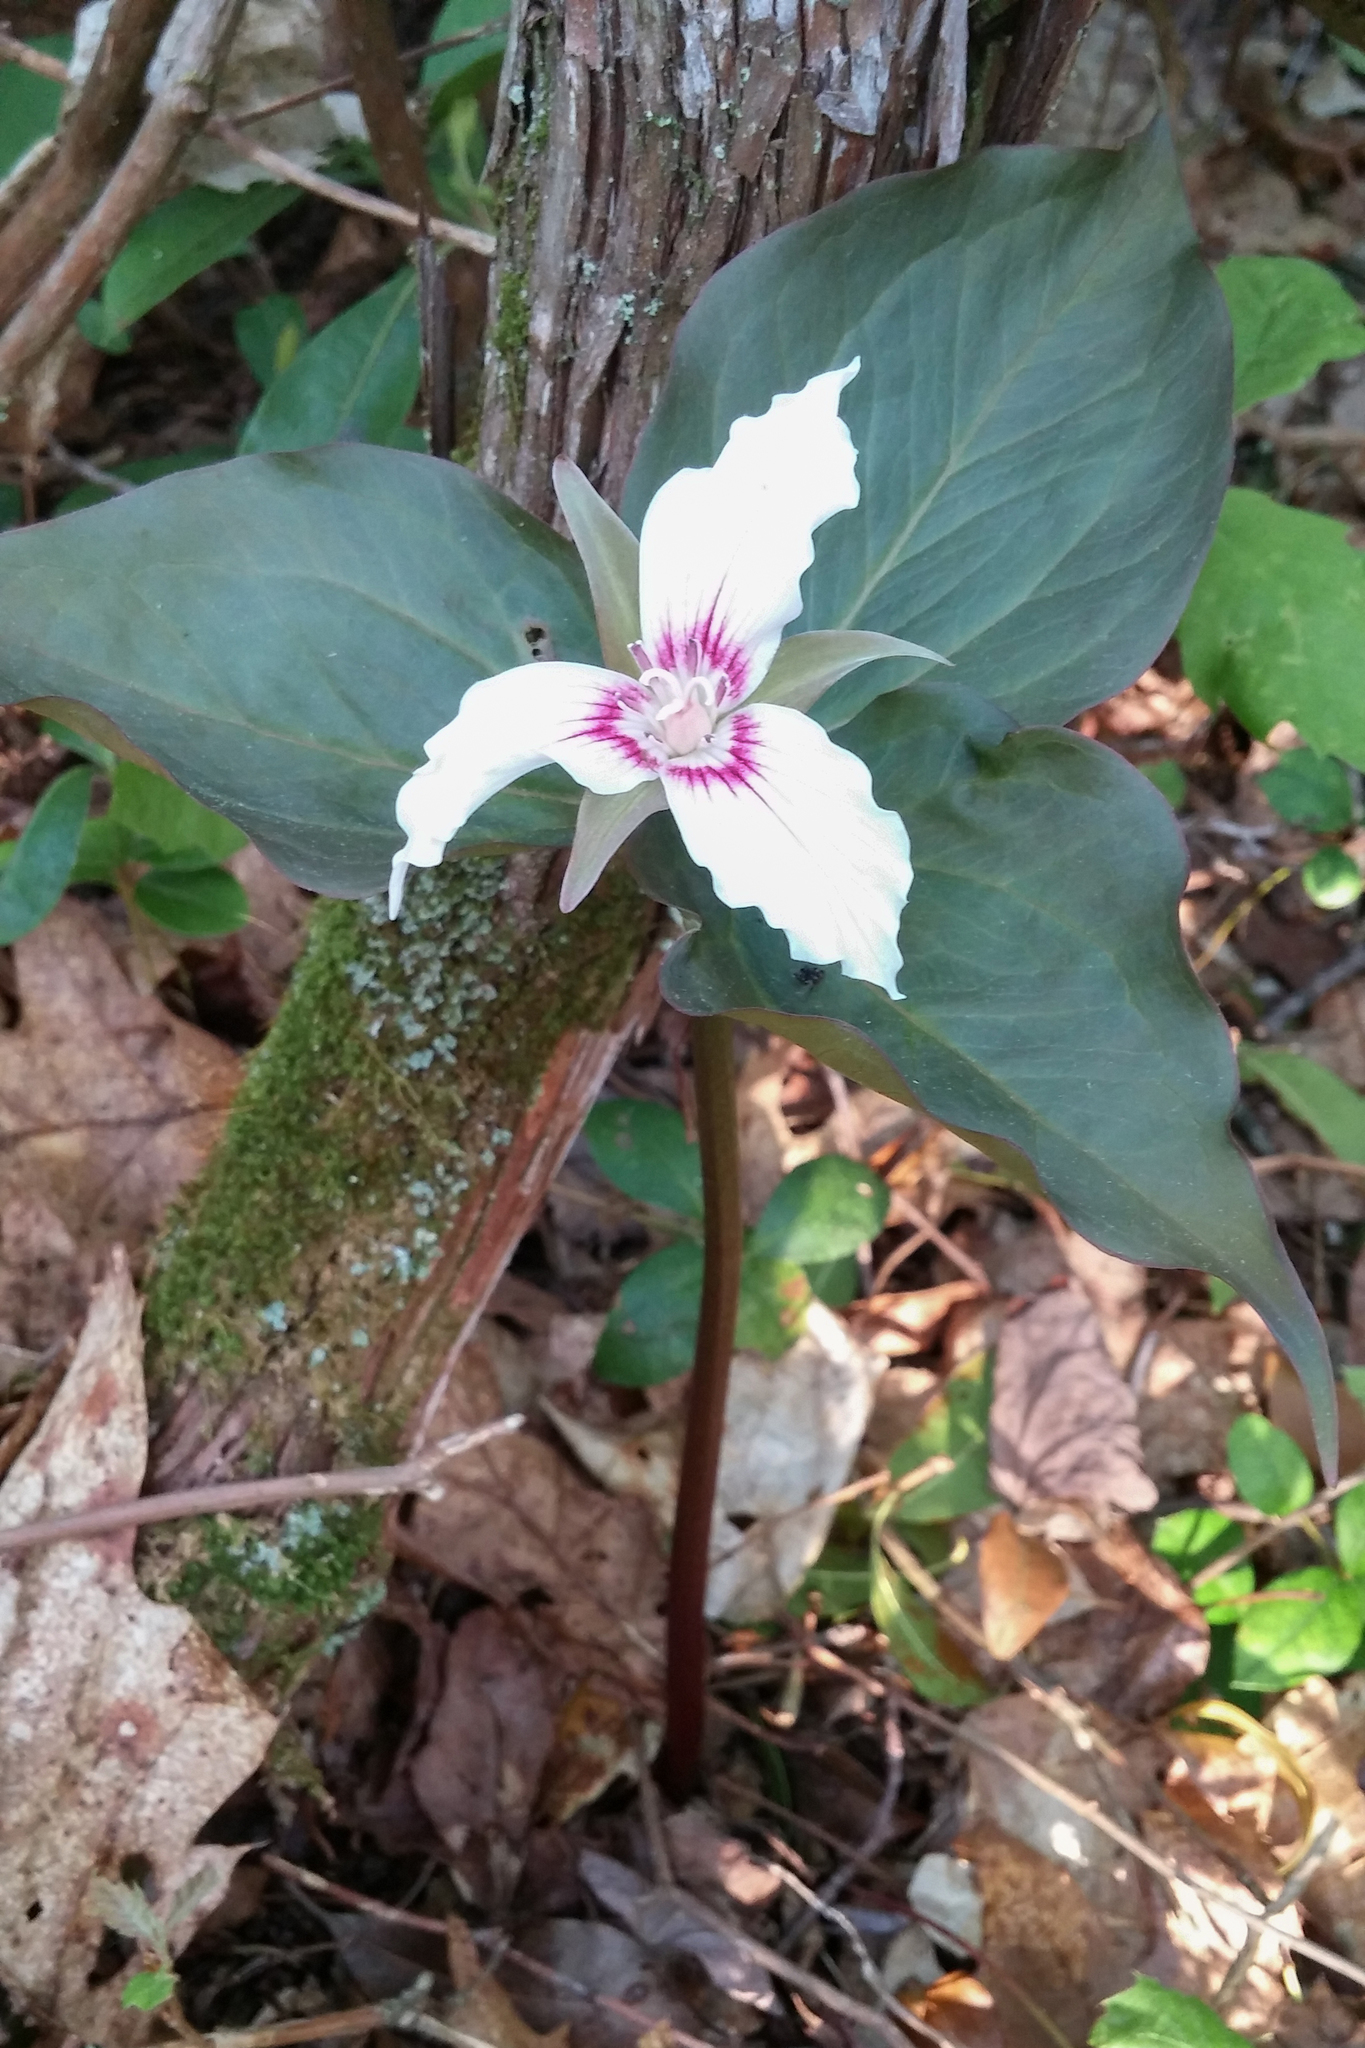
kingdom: Plantae
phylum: Tracheophyta
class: Liliopsida
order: Liliales
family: Melanthiaceae
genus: Trillium
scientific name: Trillium undulatum
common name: Paint trillium
